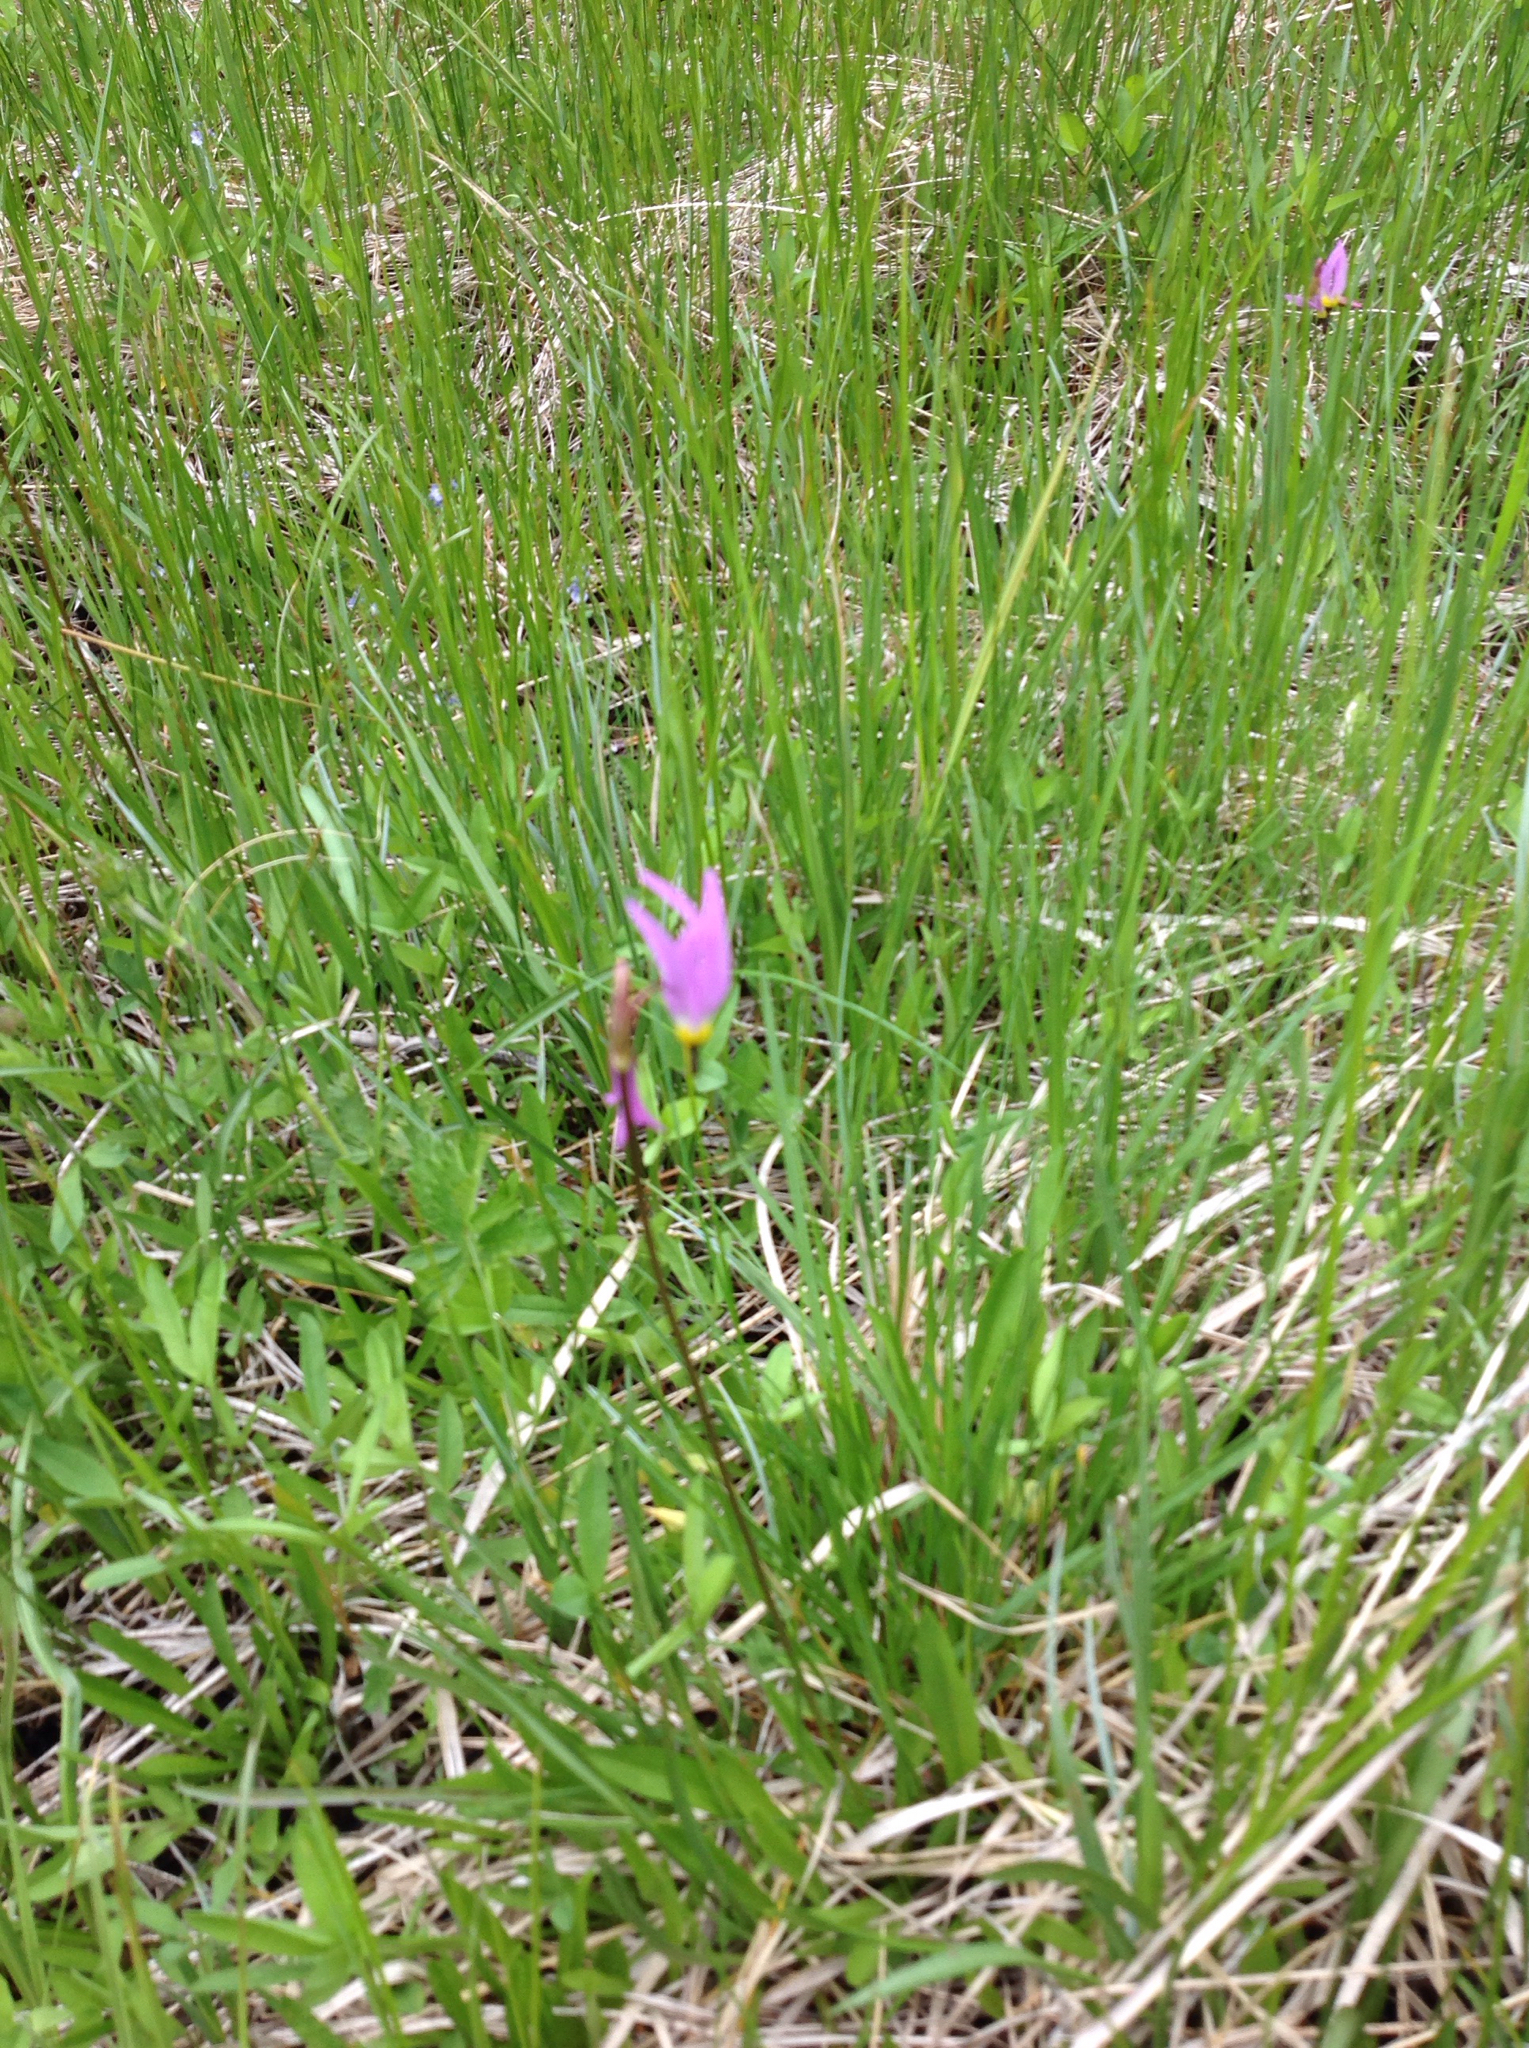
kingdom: Plantae
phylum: Tracheophyta
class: Magnoliopsida
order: Ericales
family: Primulaceae
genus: Dodecatheon
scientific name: Dodecatheon alpinum
